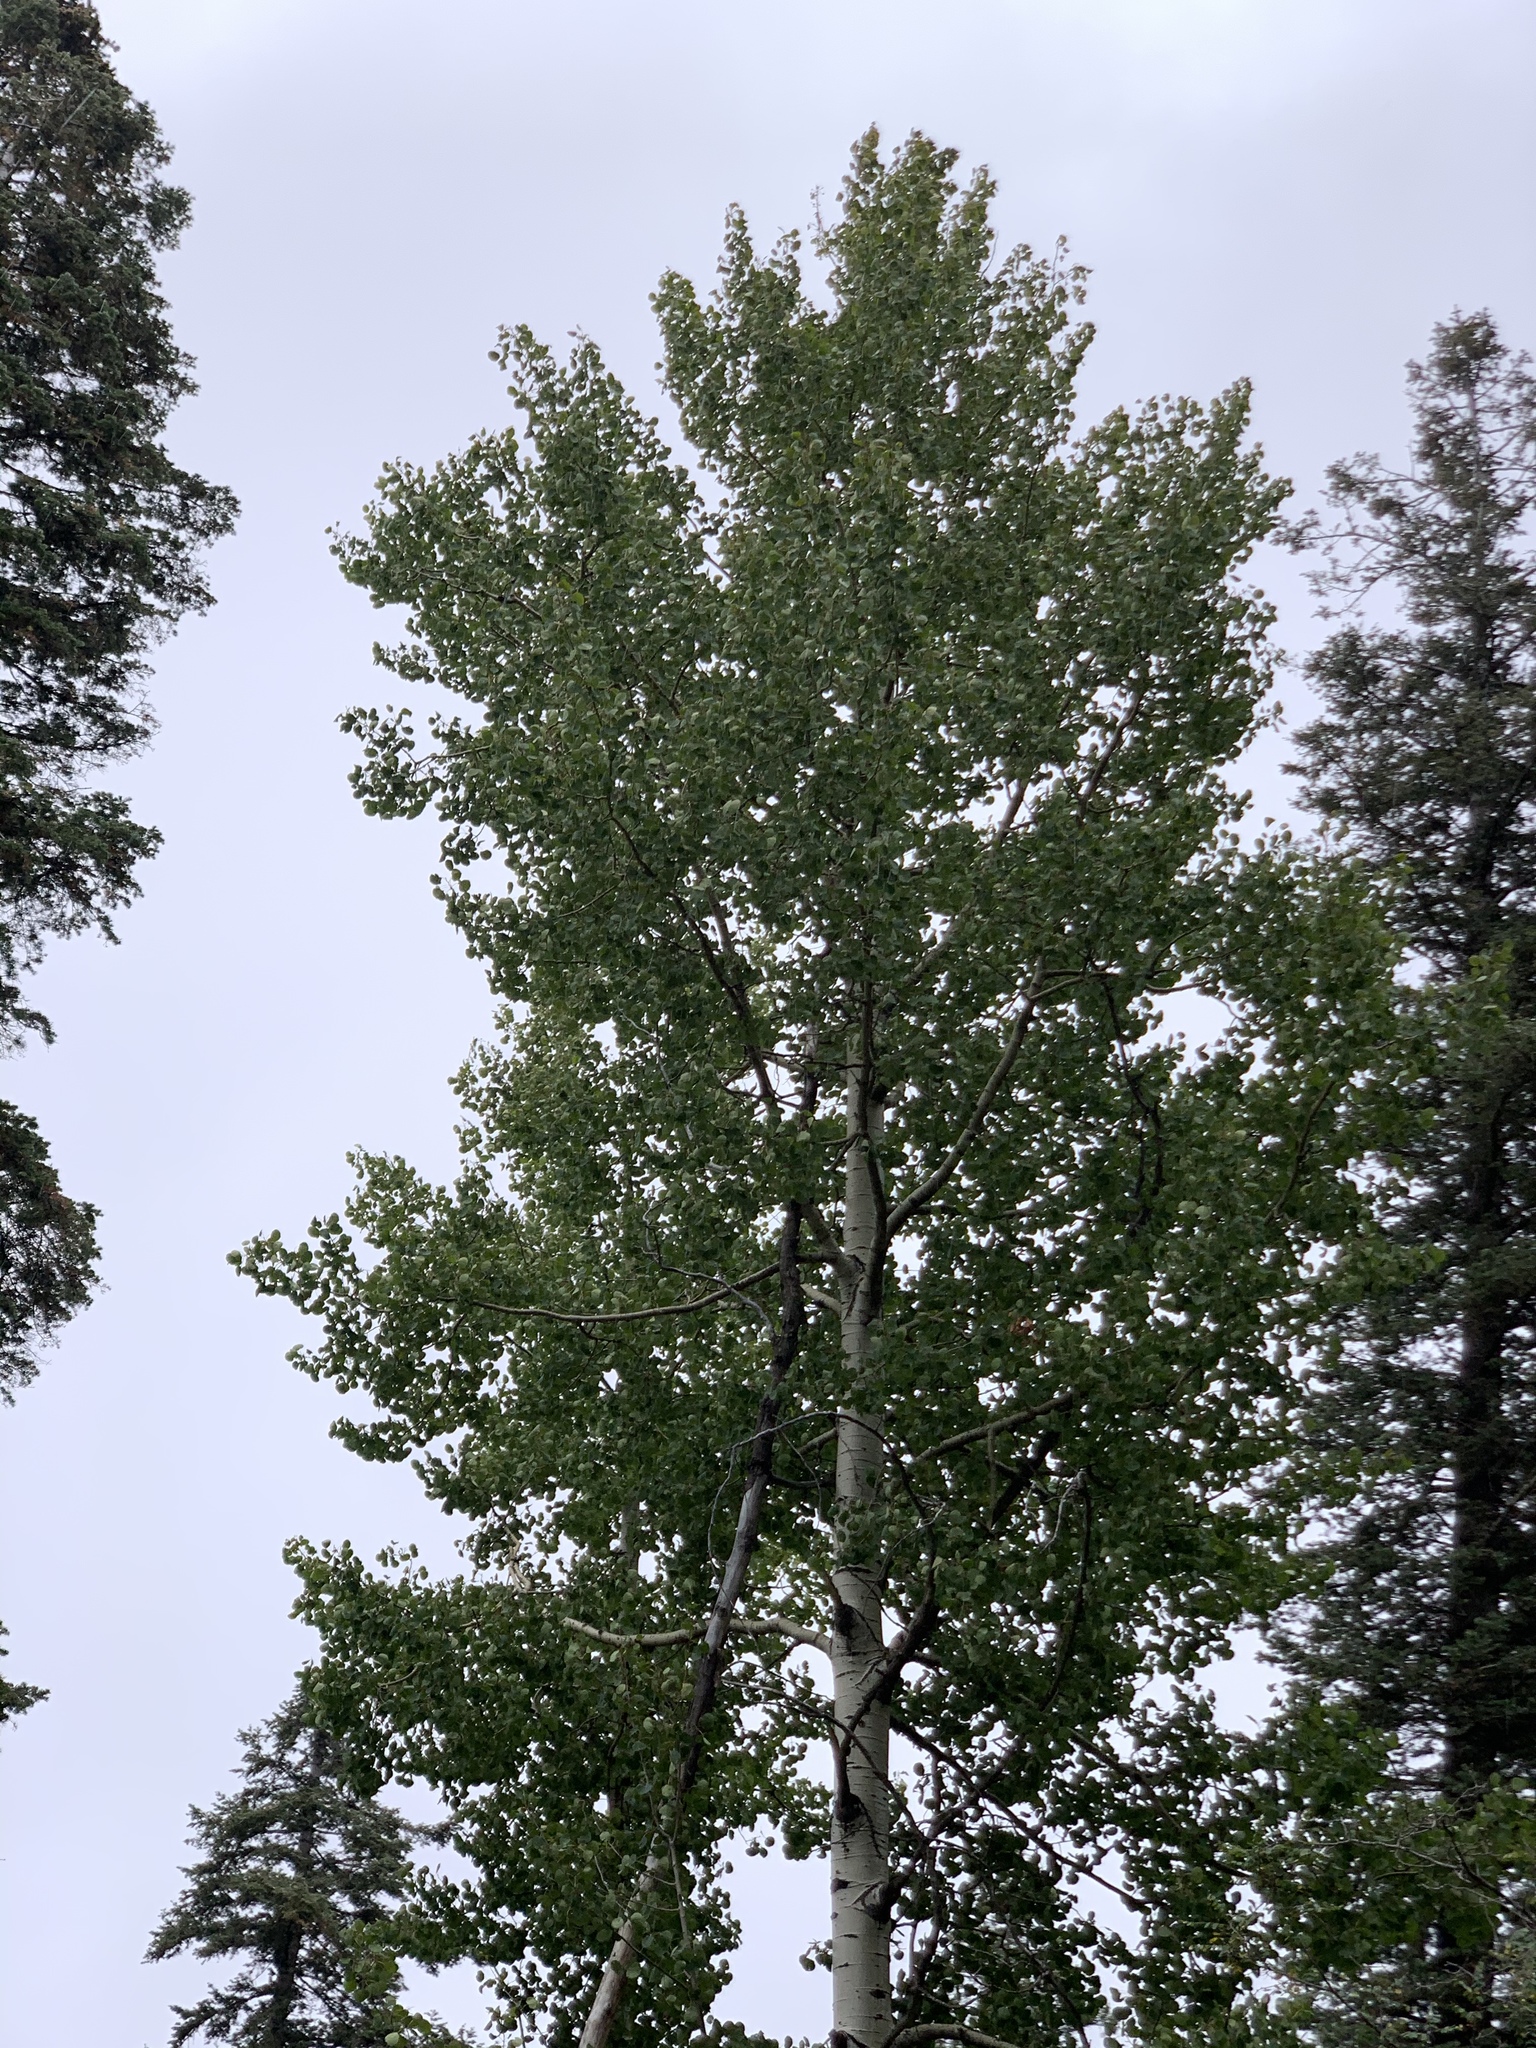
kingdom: Plantae
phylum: Tracheophyta
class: Magnoliopsida
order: Malpighiales
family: Salicaceae
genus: Populus
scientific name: Populus tremuloides
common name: Quaking aspen
